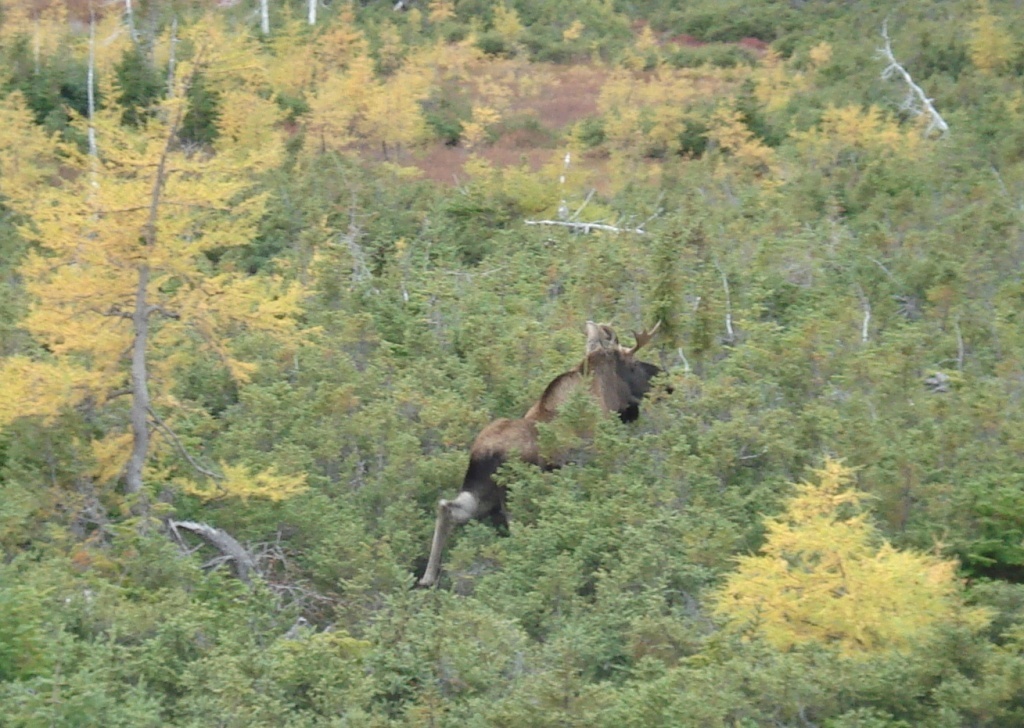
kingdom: Animalia
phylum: Chordata
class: Mammalia
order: Artiodactyla
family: Cervidae
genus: Alces
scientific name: Alces alces
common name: Moose
